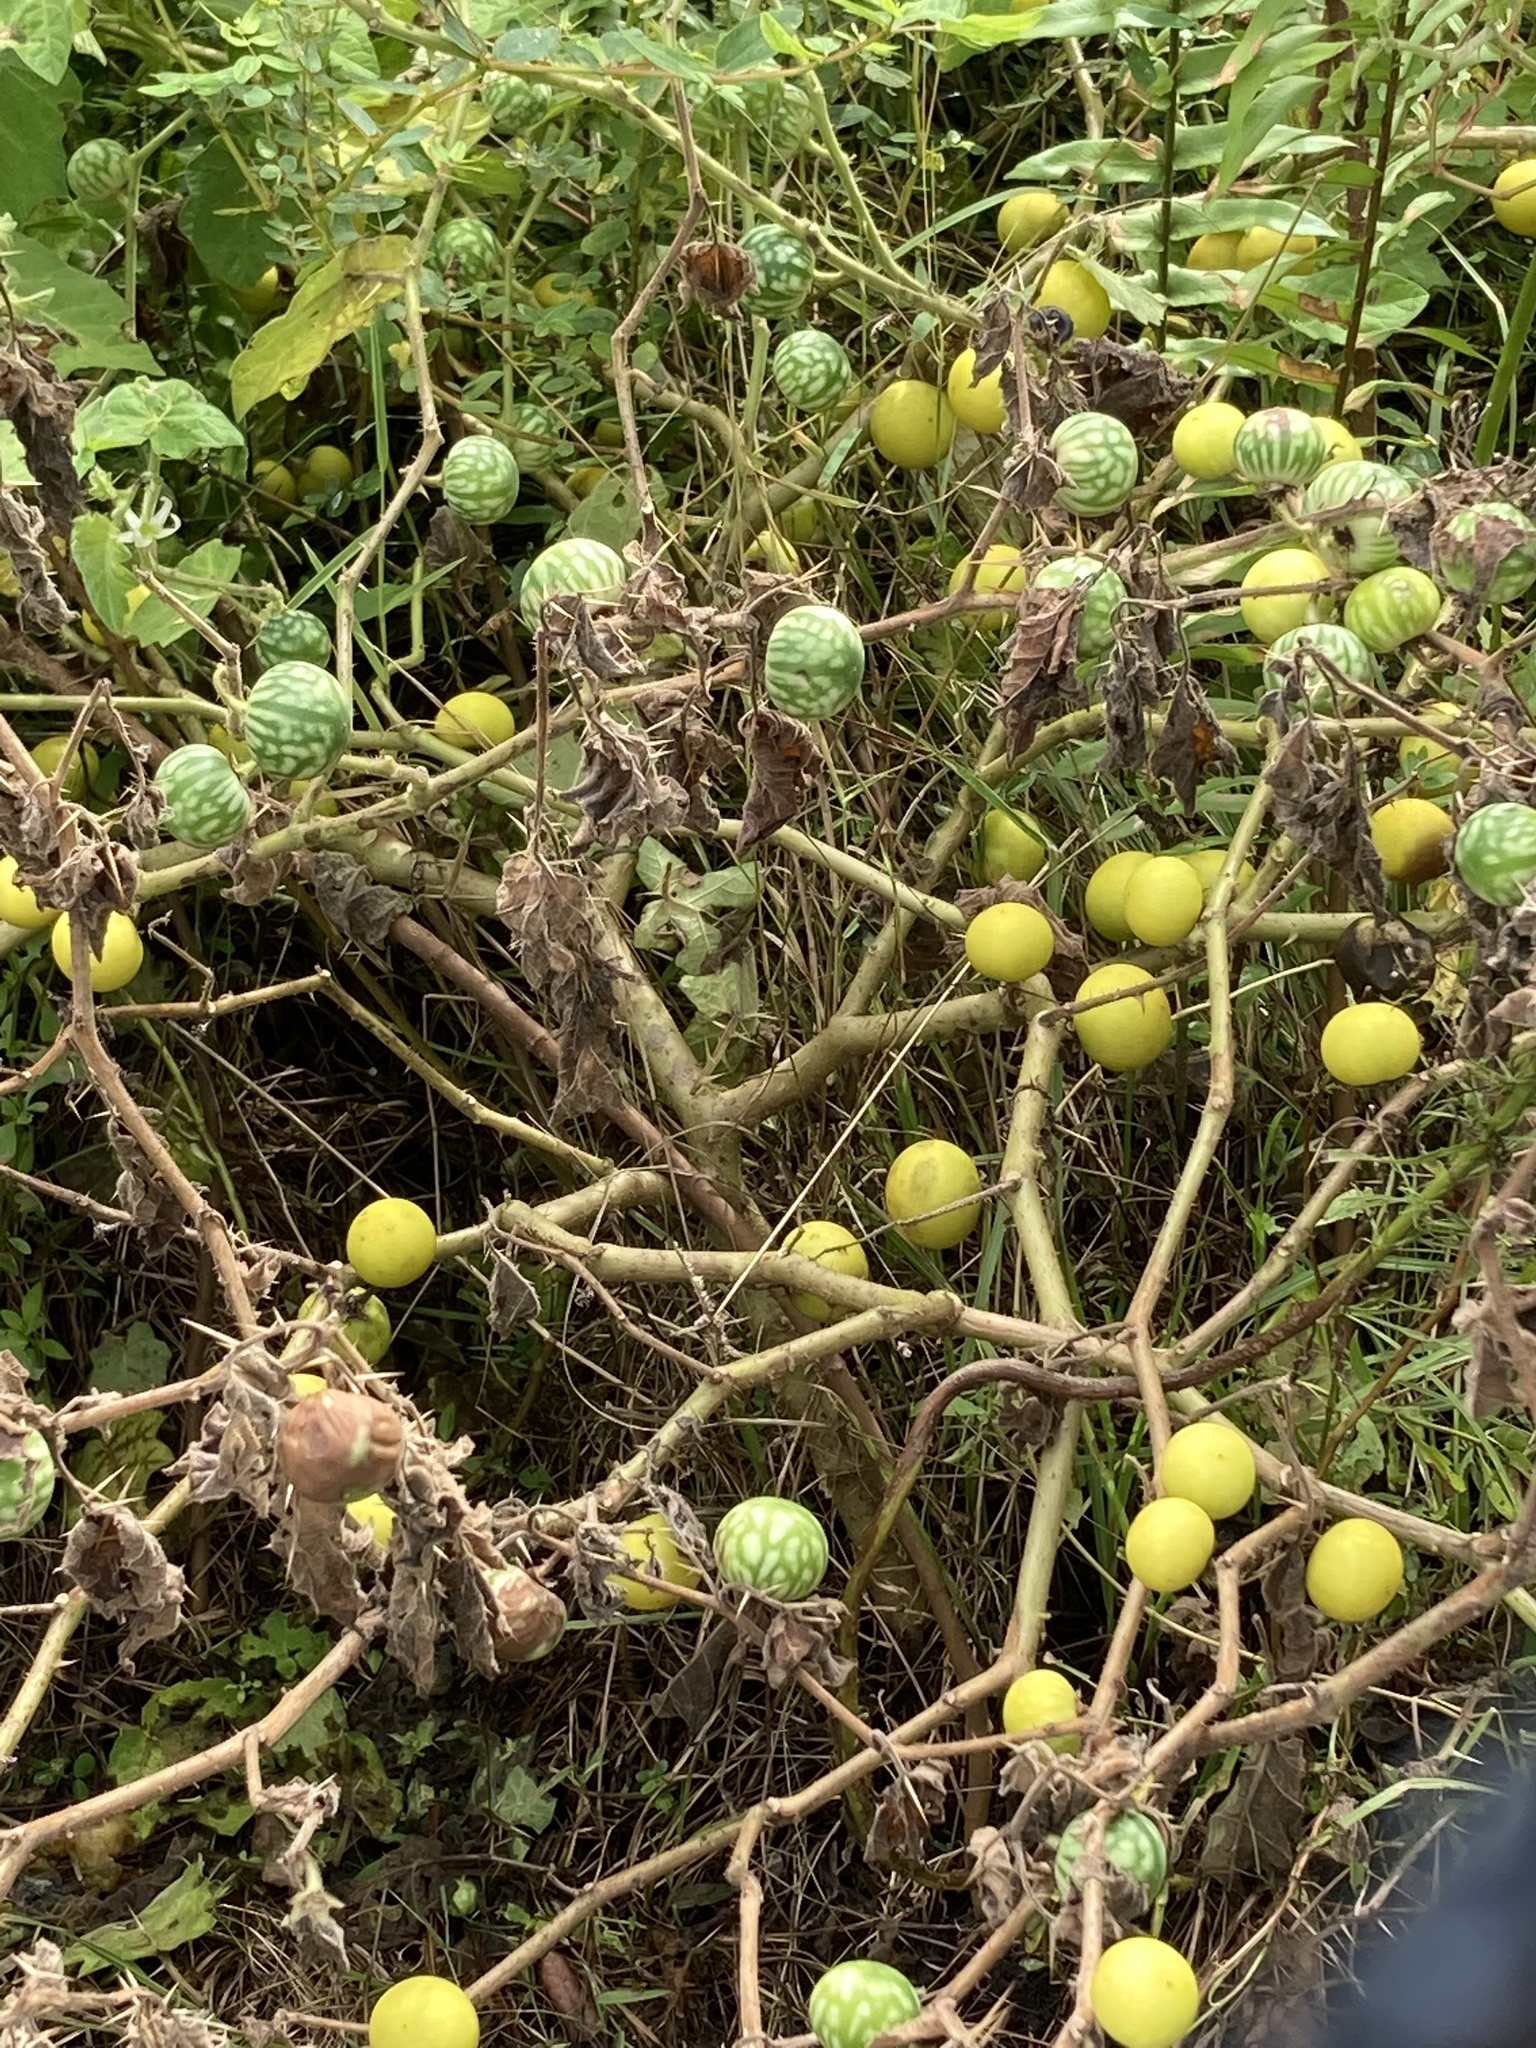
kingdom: Plantae
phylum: Tracheophyta
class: Magnoliopsida
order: Solanales
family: Solanaceae
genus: Solanum
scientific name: Solanum viarum
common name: Tropical soda apple
